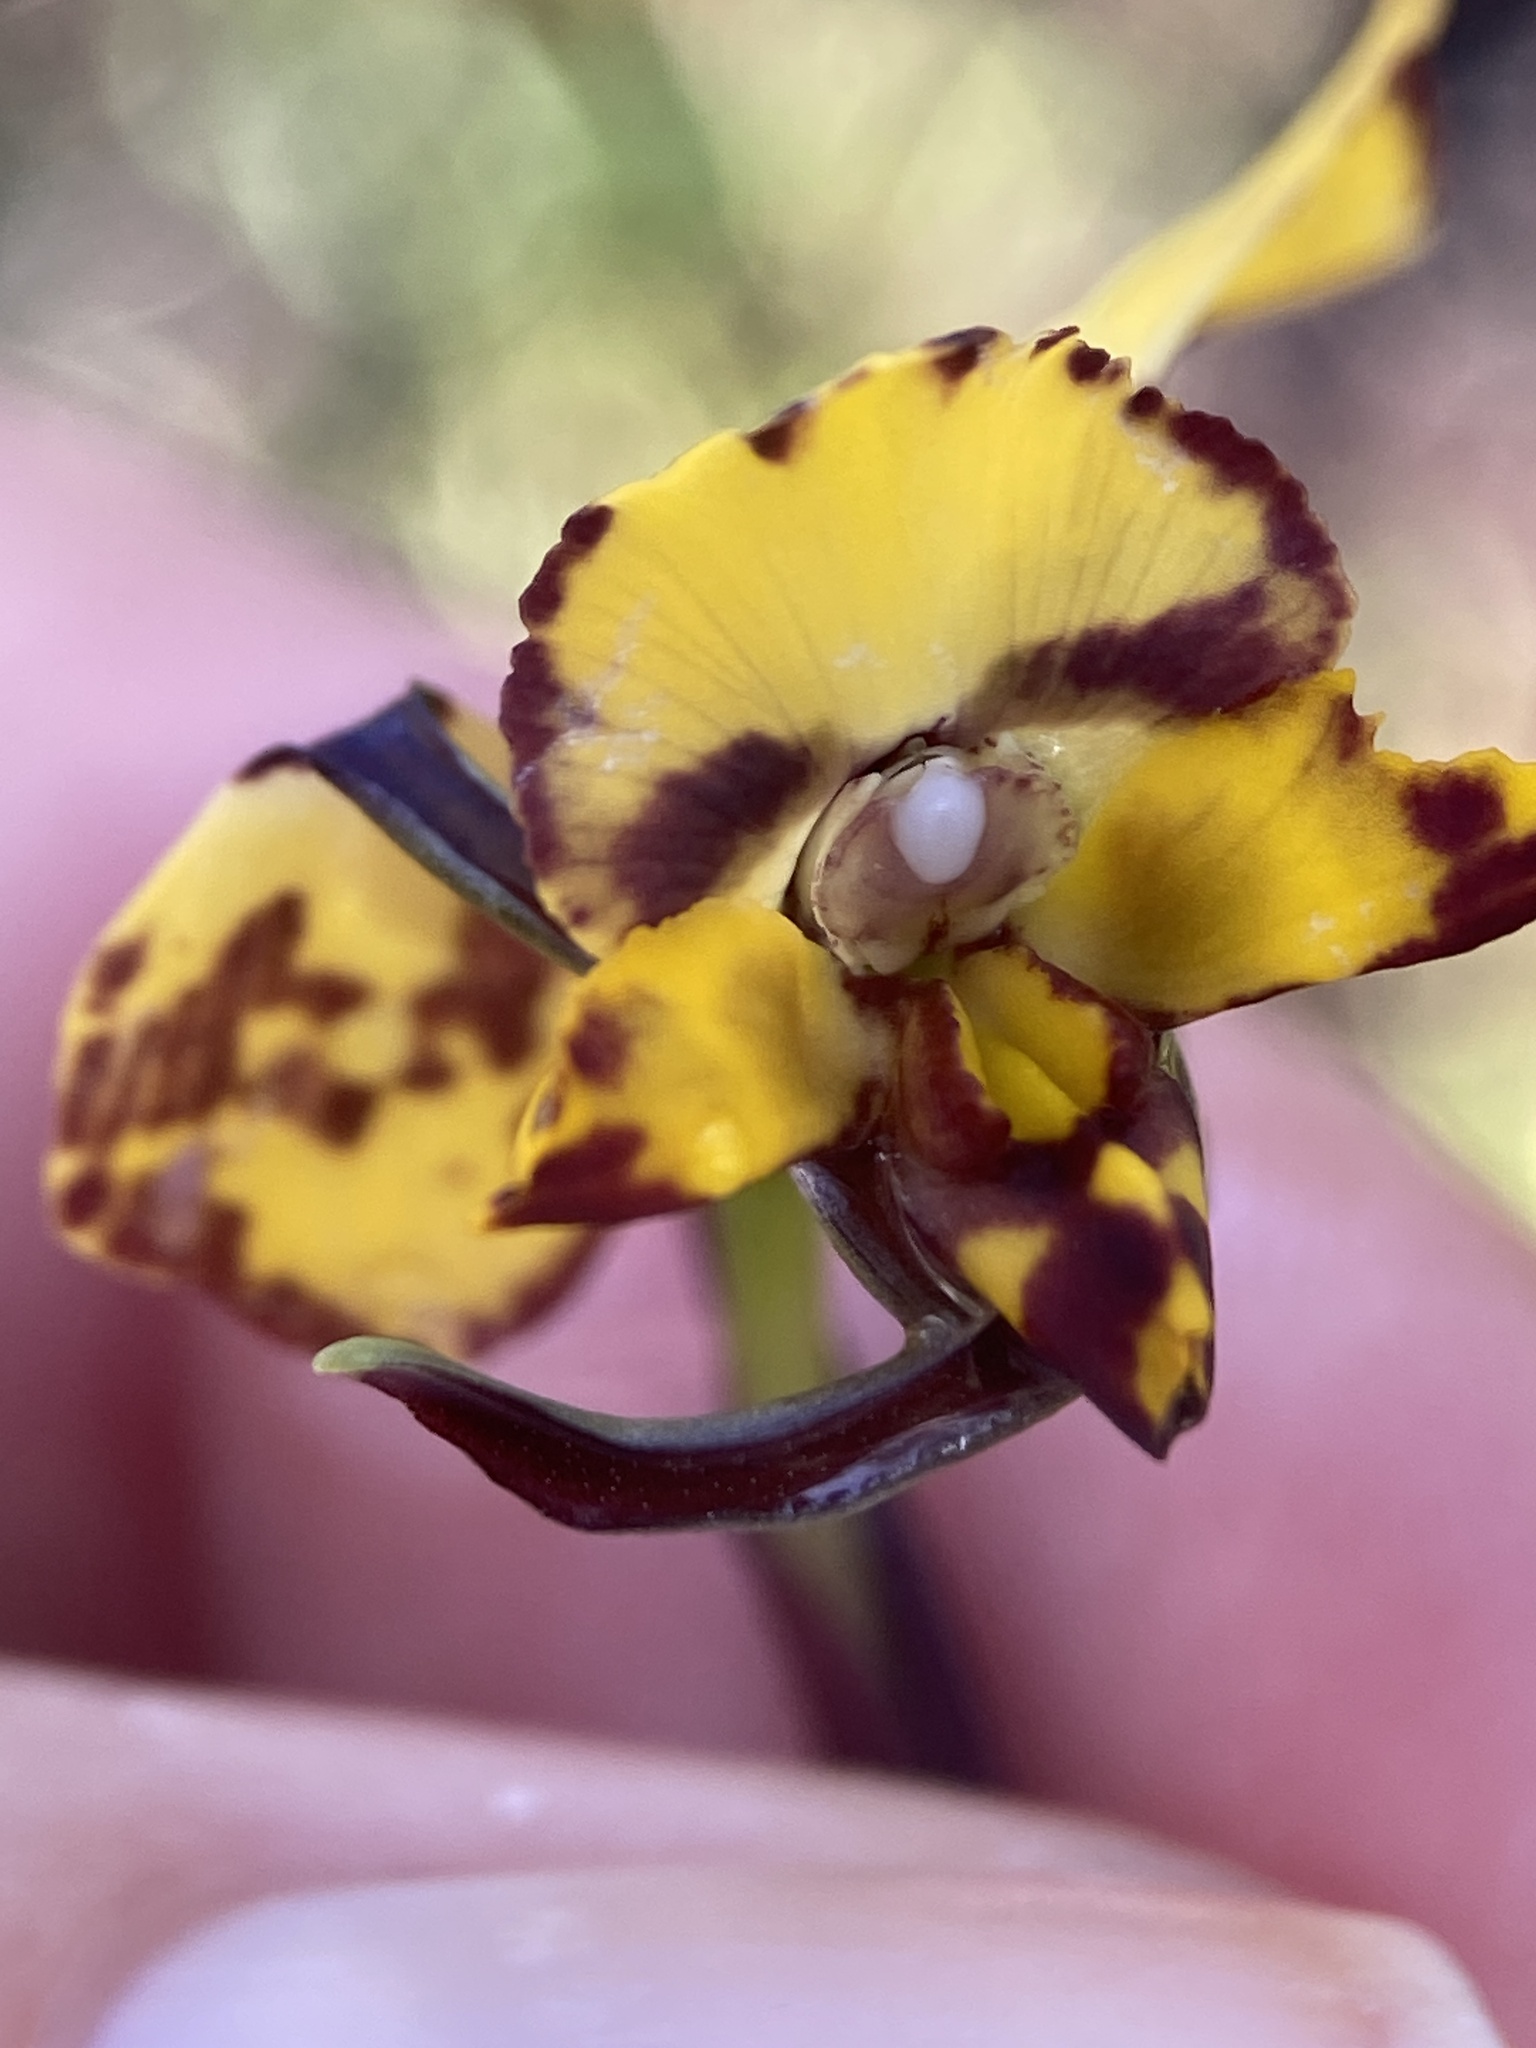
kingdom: Plantae
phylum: Tracheophyta
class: Liliopsida
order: Asparagales
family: Orchidaceae
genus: Diuris
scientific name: Diuris pardina
